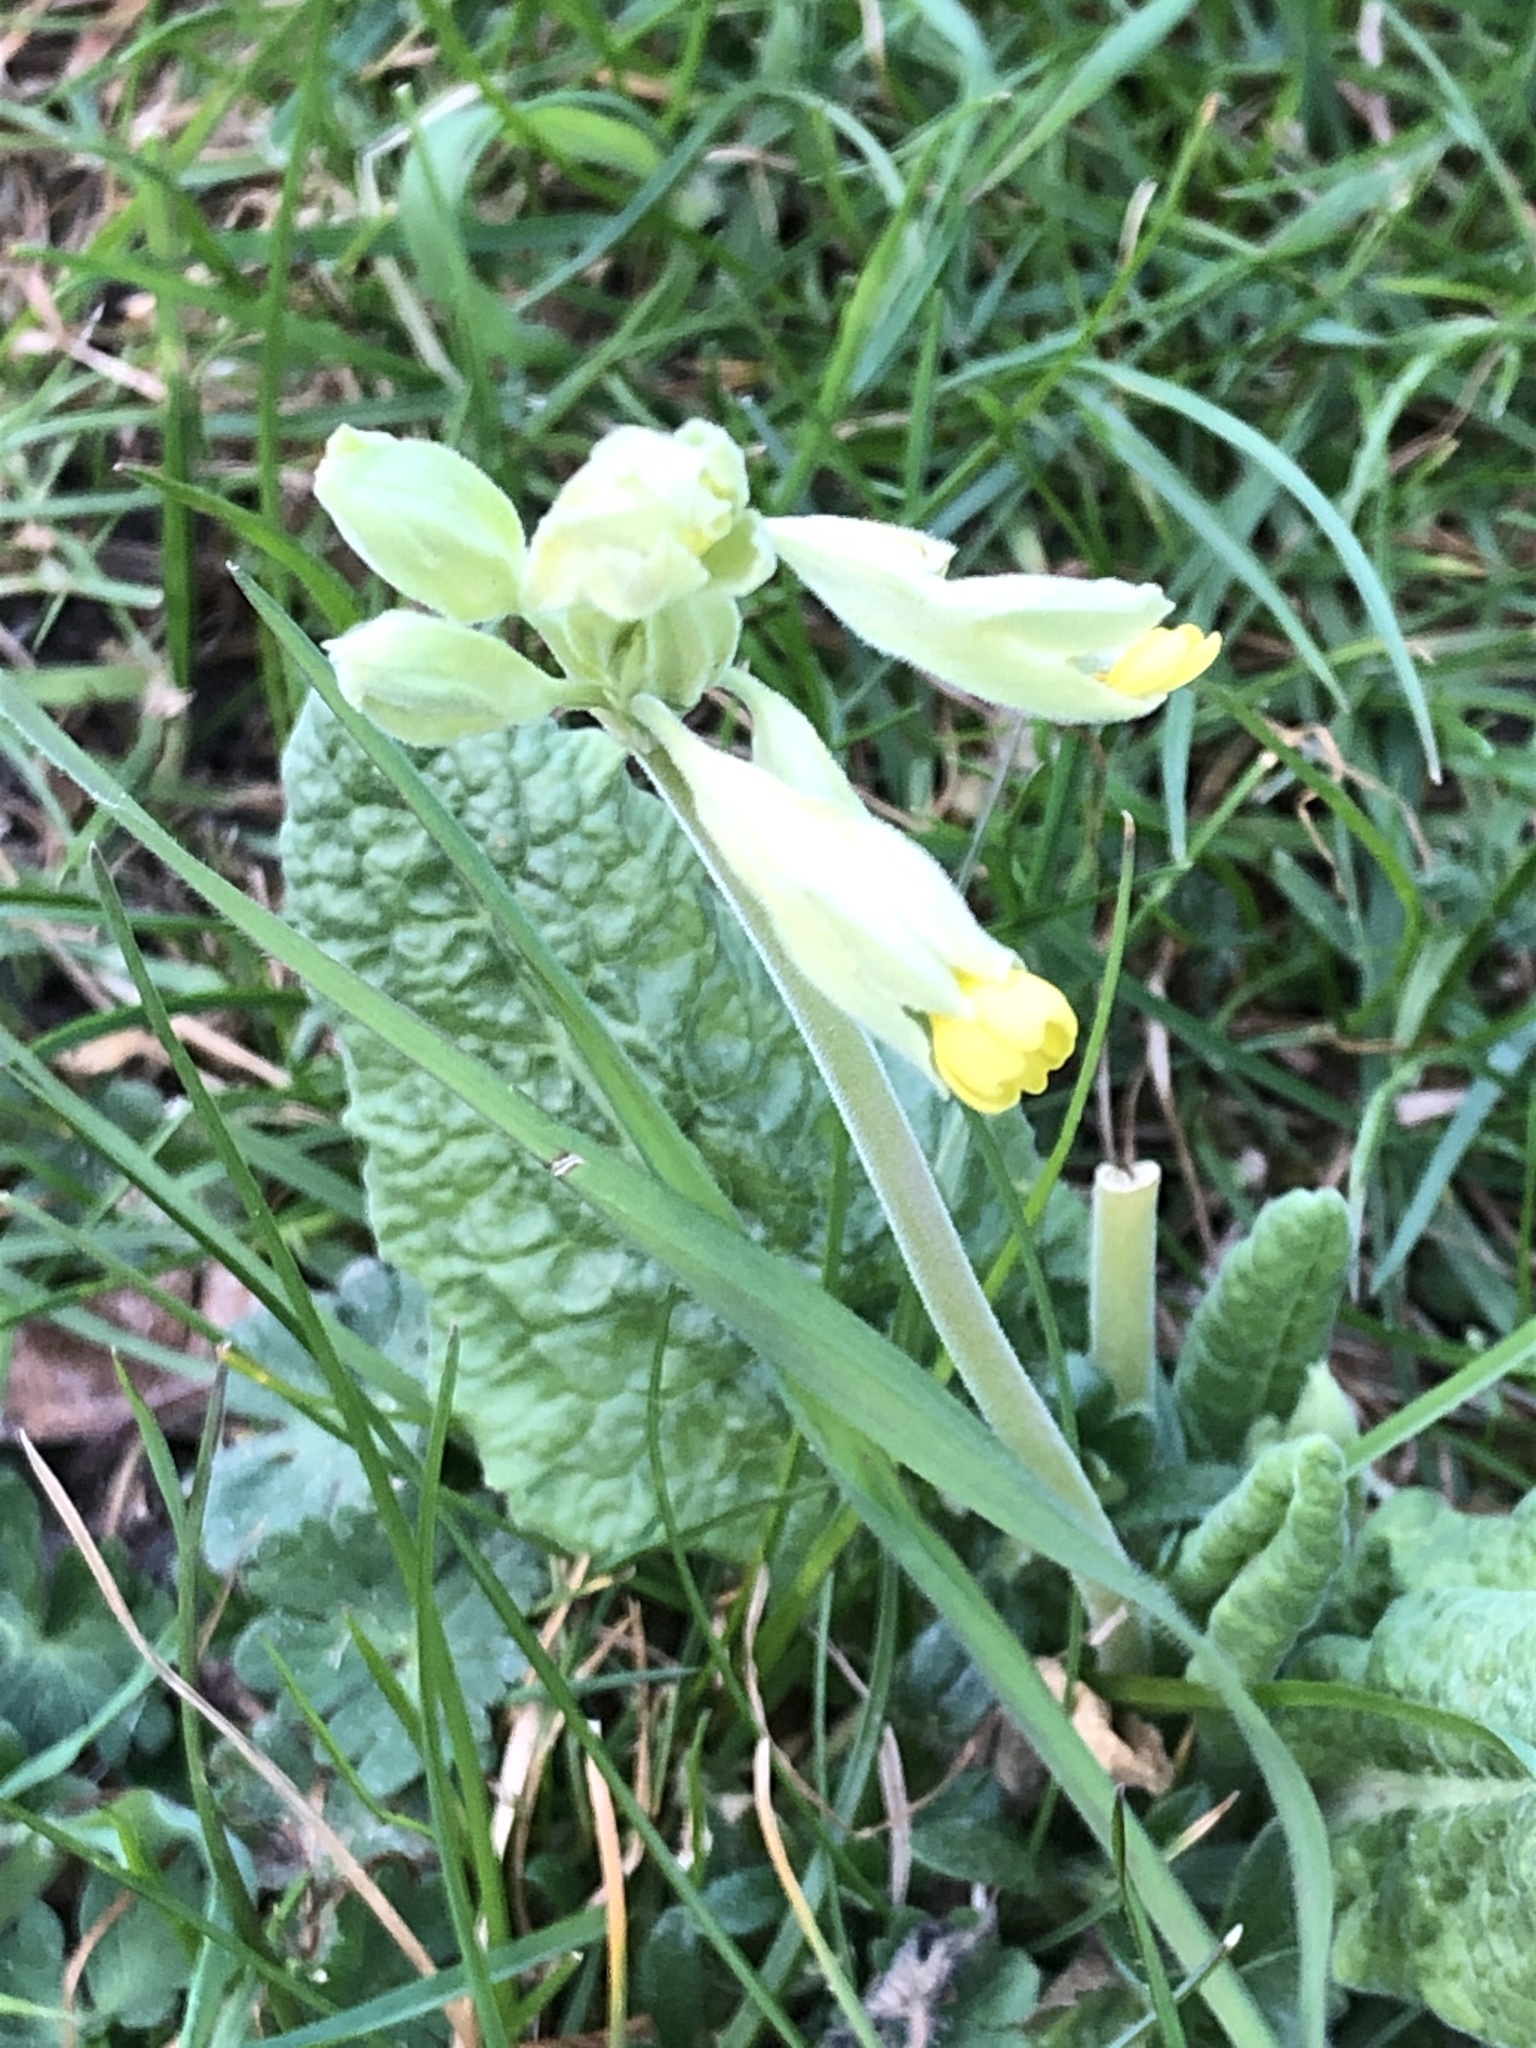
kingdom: Plantae
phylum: Tracheophyta
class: Magnoliopsida
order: Ericales
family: Primulaceae
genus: Primula
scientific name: Primula veris
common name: Cowslip
